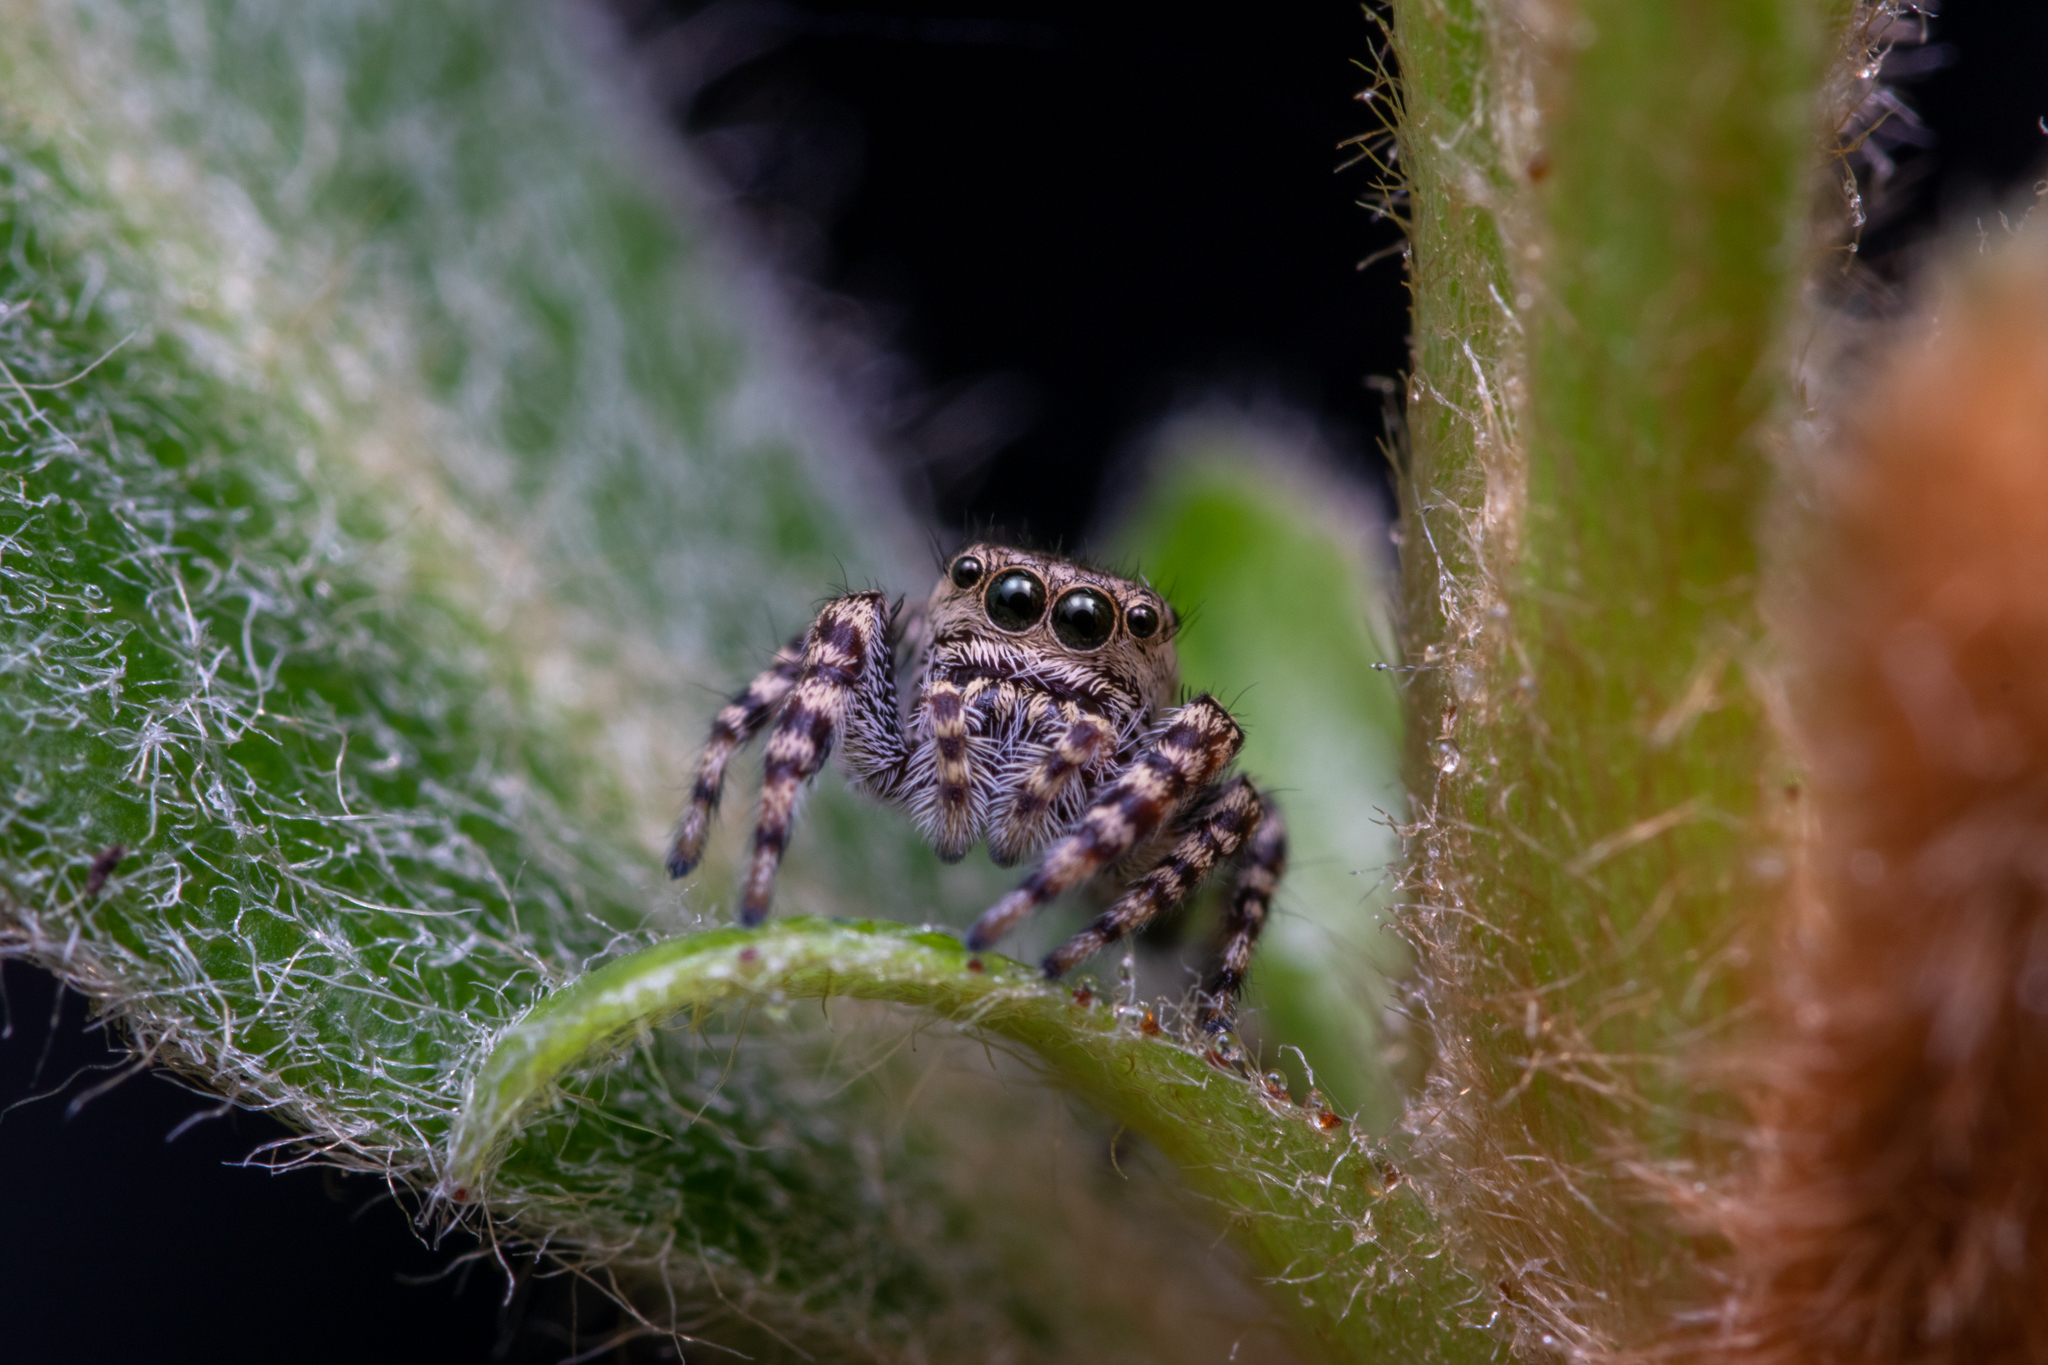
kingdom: Animalia
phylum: Arthropoda
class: Arachnida
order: Araneae
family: Salticidae
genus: Pelegrina
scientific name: Pelegrina galathea
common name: Jumping spiders
